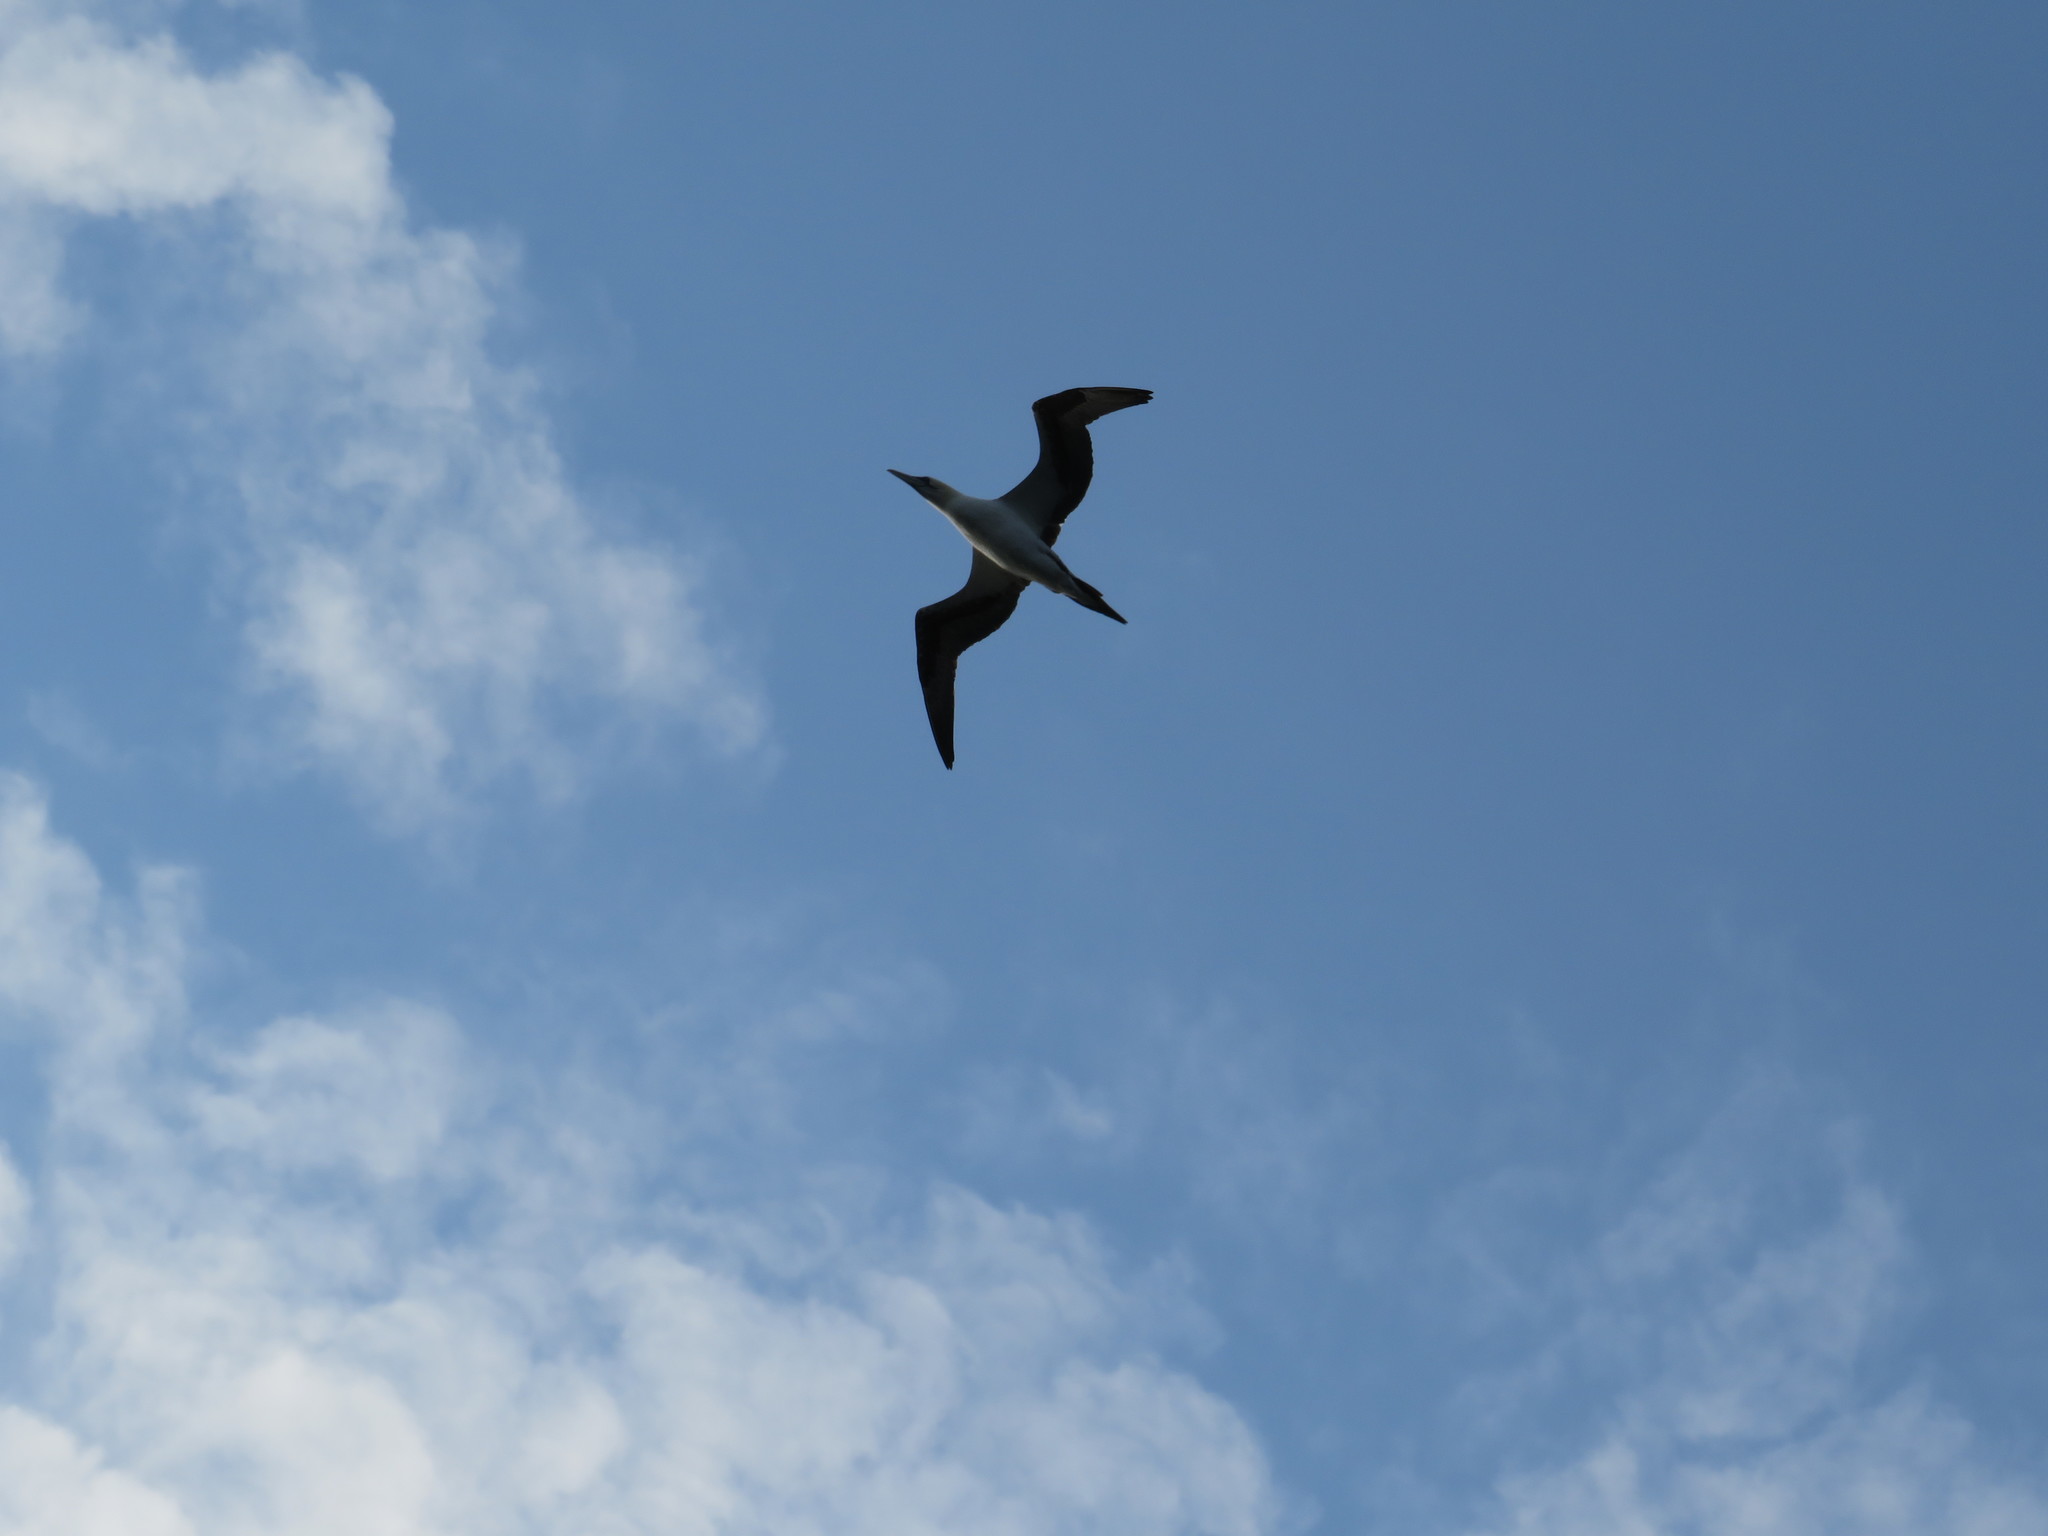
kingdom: Animalia
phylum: Chordata
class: Aves
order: Suliformes
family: Sulidae
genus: Morus
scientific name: Morus bassanus
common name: Northern gannet
